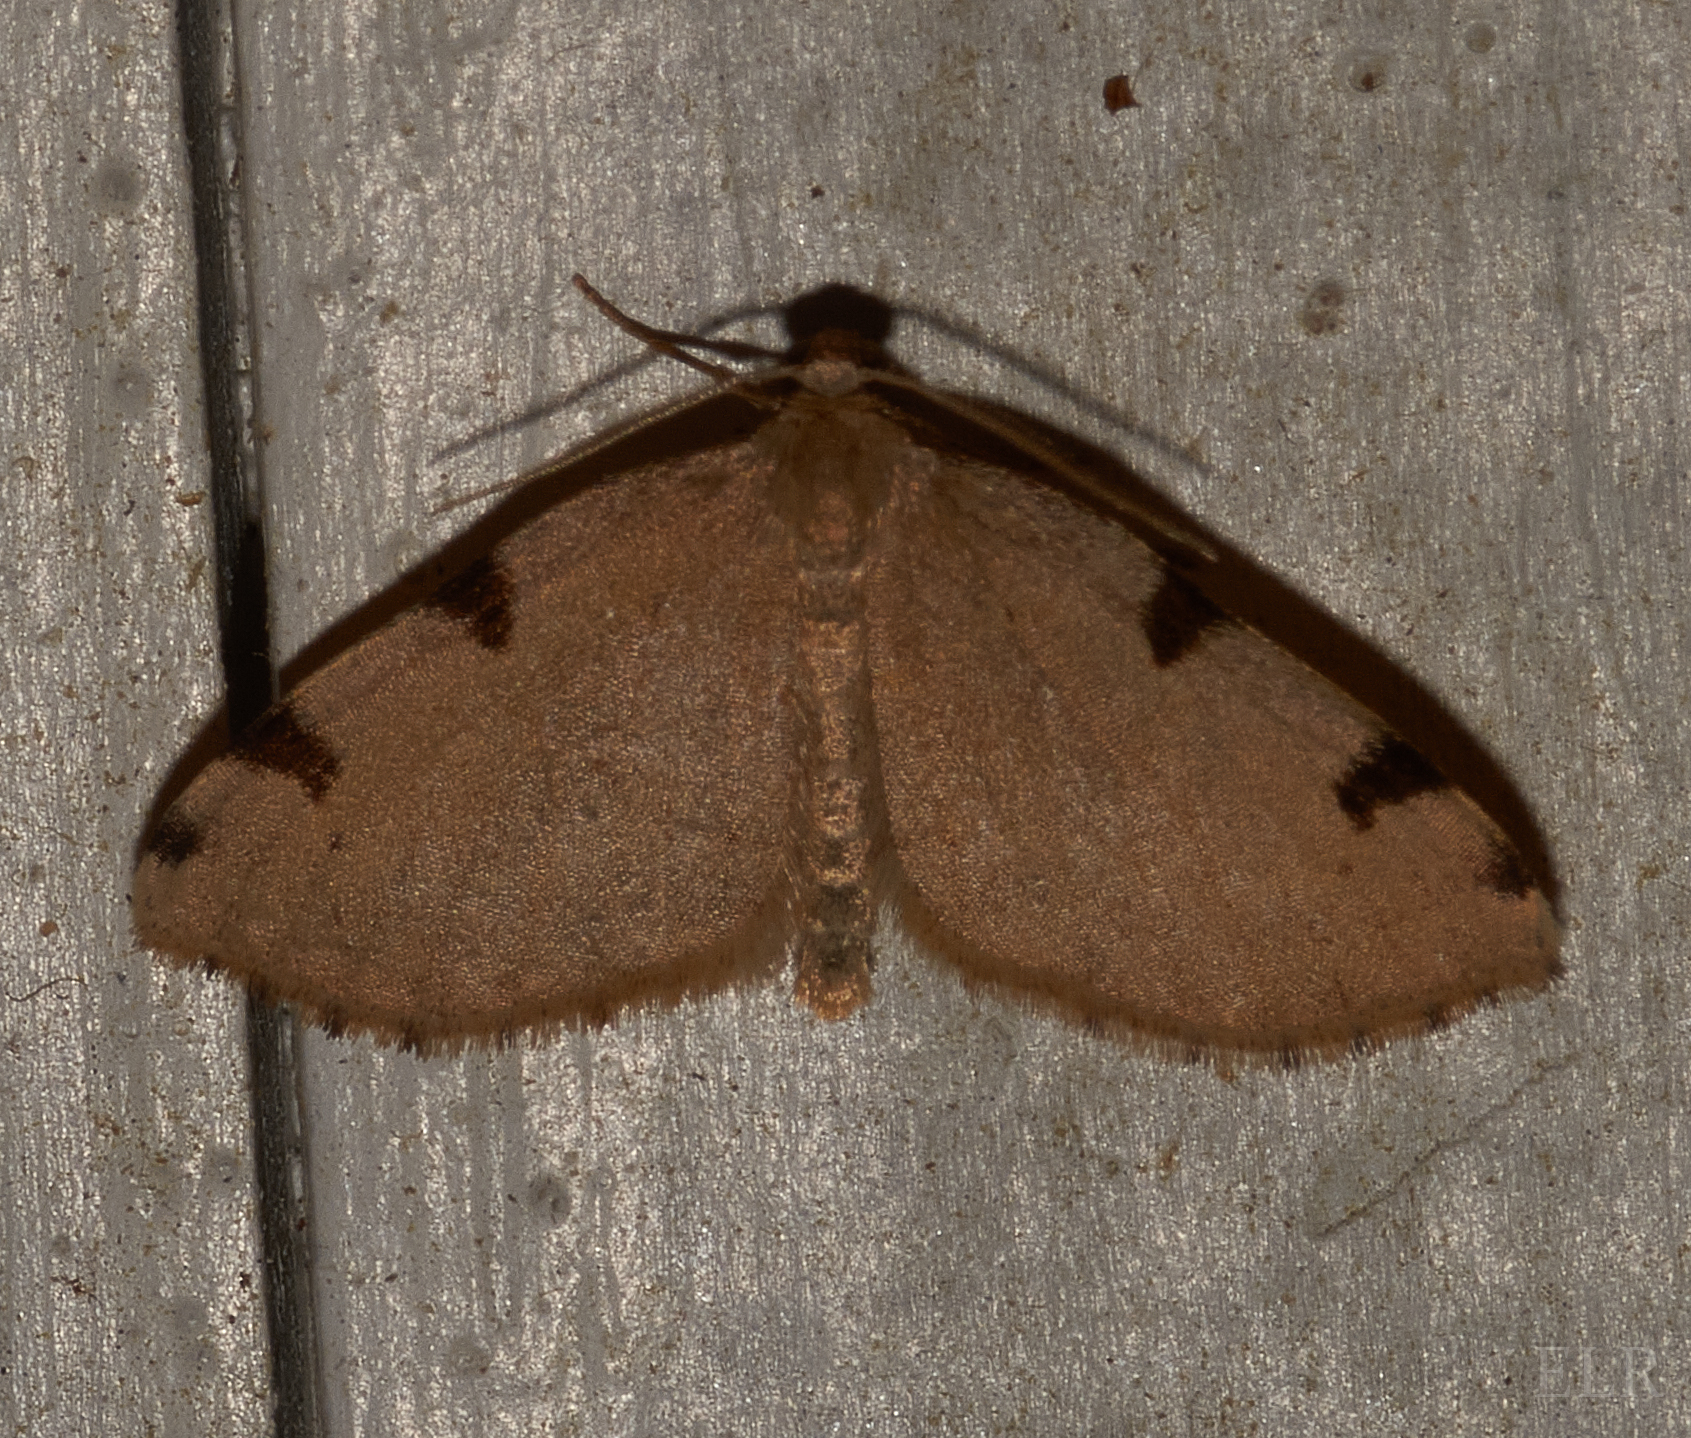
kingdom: Animalia
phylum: Arthropoda
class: Insecta
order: Lepidoptera
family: Geometridae
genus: Heterophleps
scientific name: Heterophleps triguttaria
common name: Three-spotted fillip
